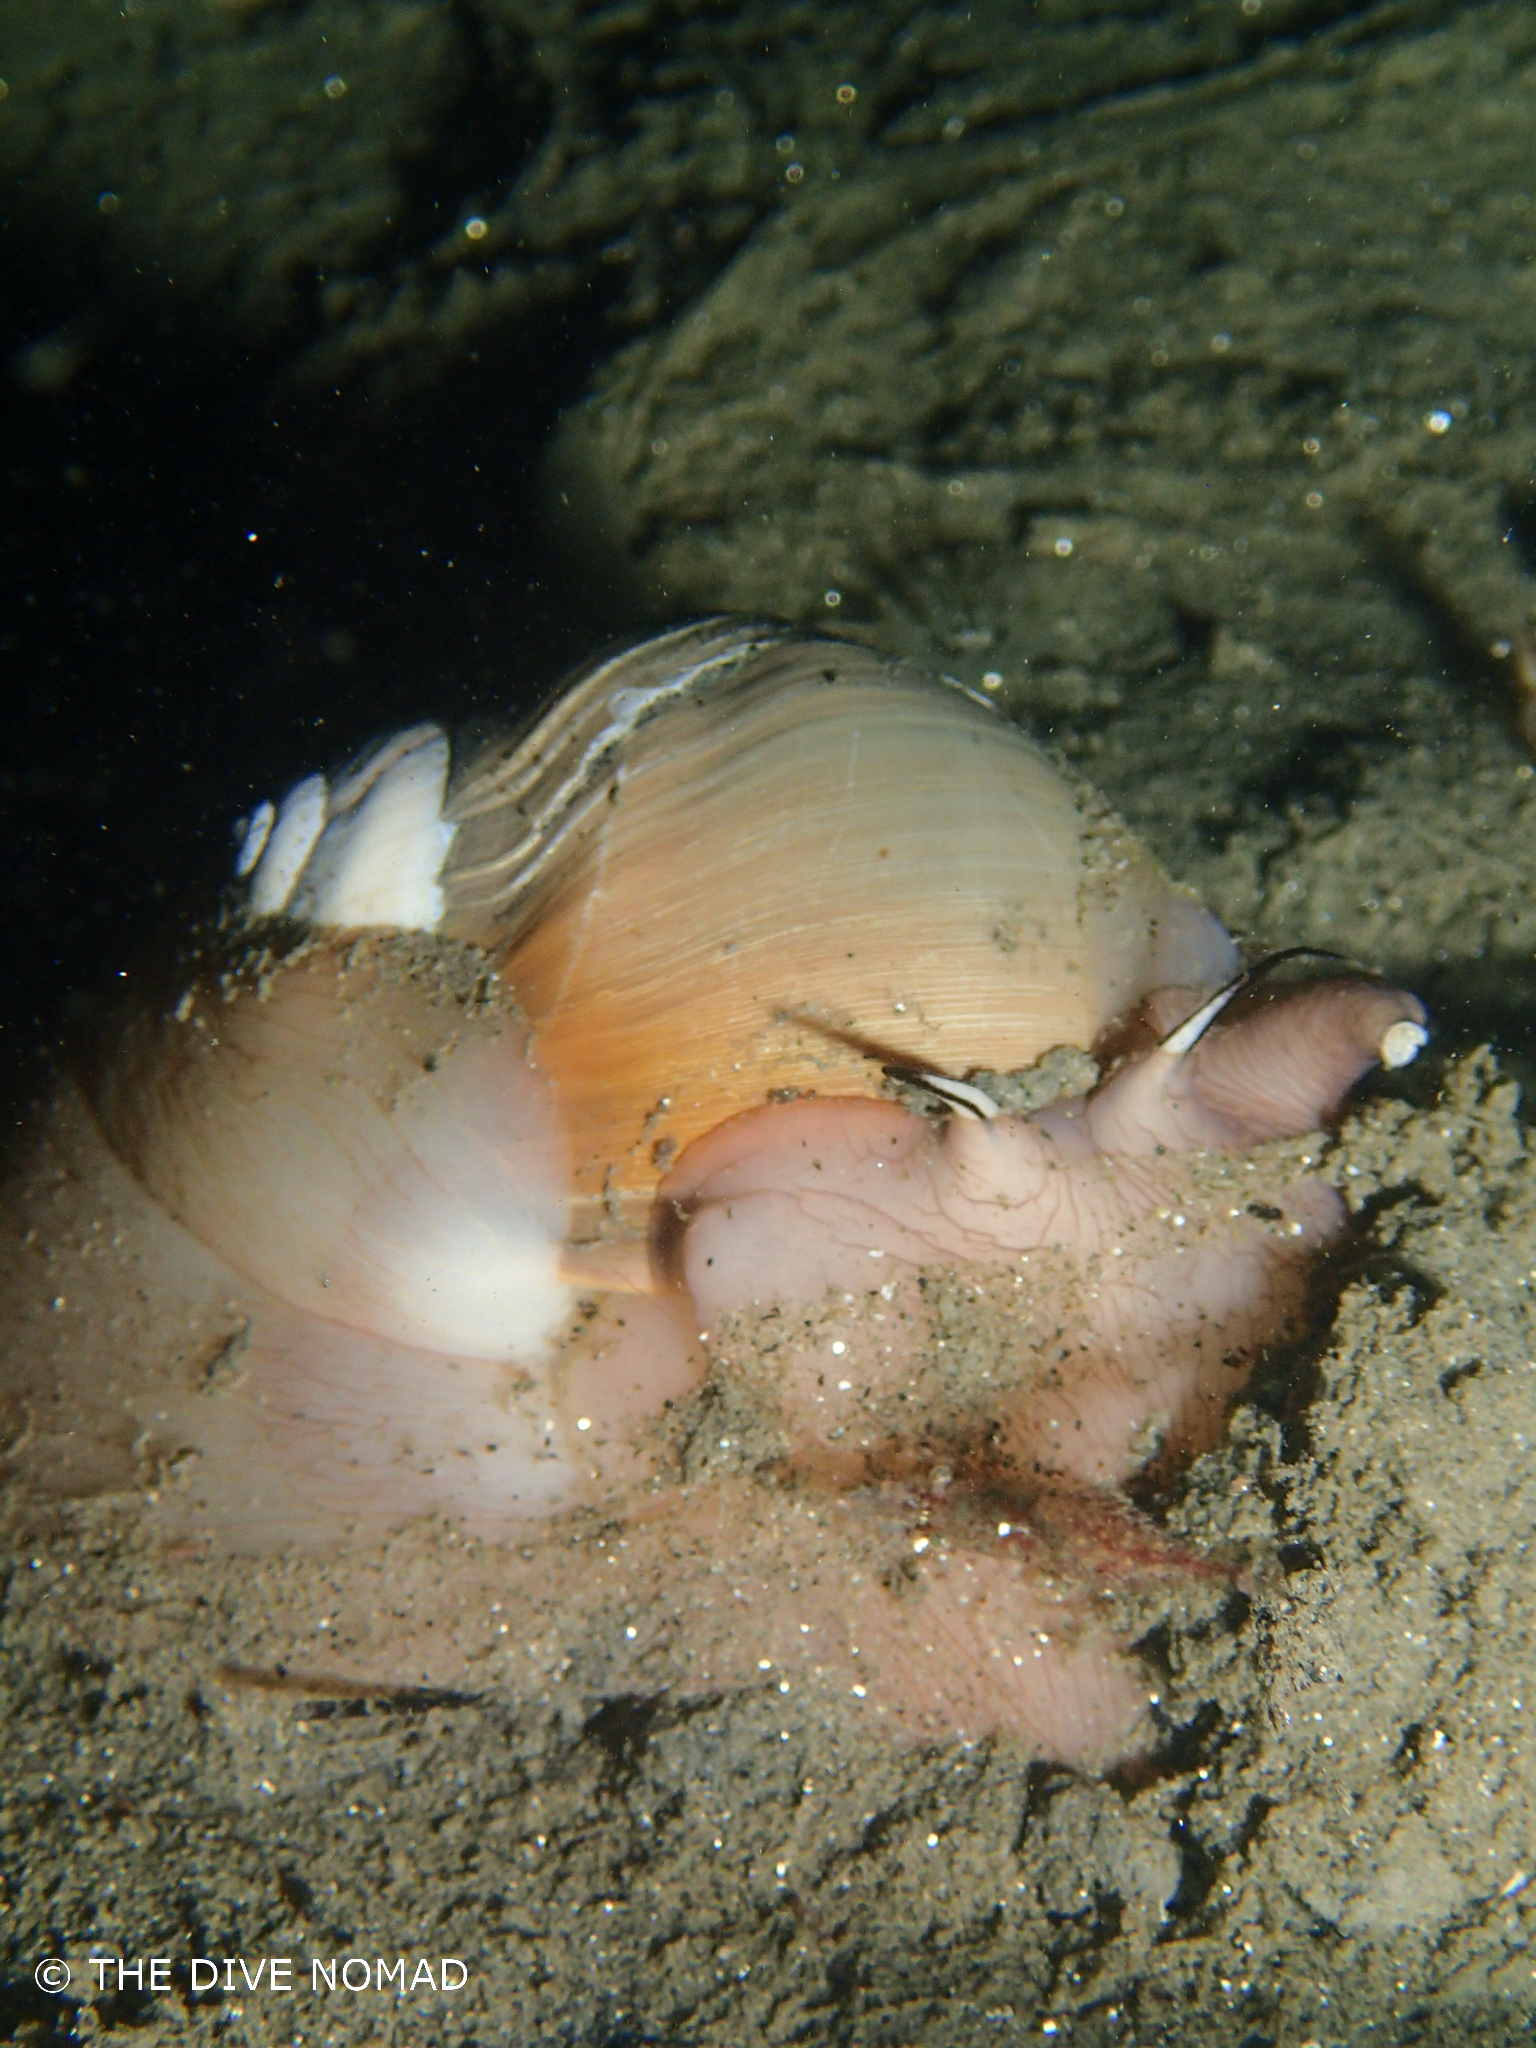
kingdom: Animalia
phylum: Mollusca
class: Gastropoda
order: Littorinimorpha
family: Naticidae
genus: Neverita
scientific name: Neverita lewisii
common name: Lewis' moonsnail
